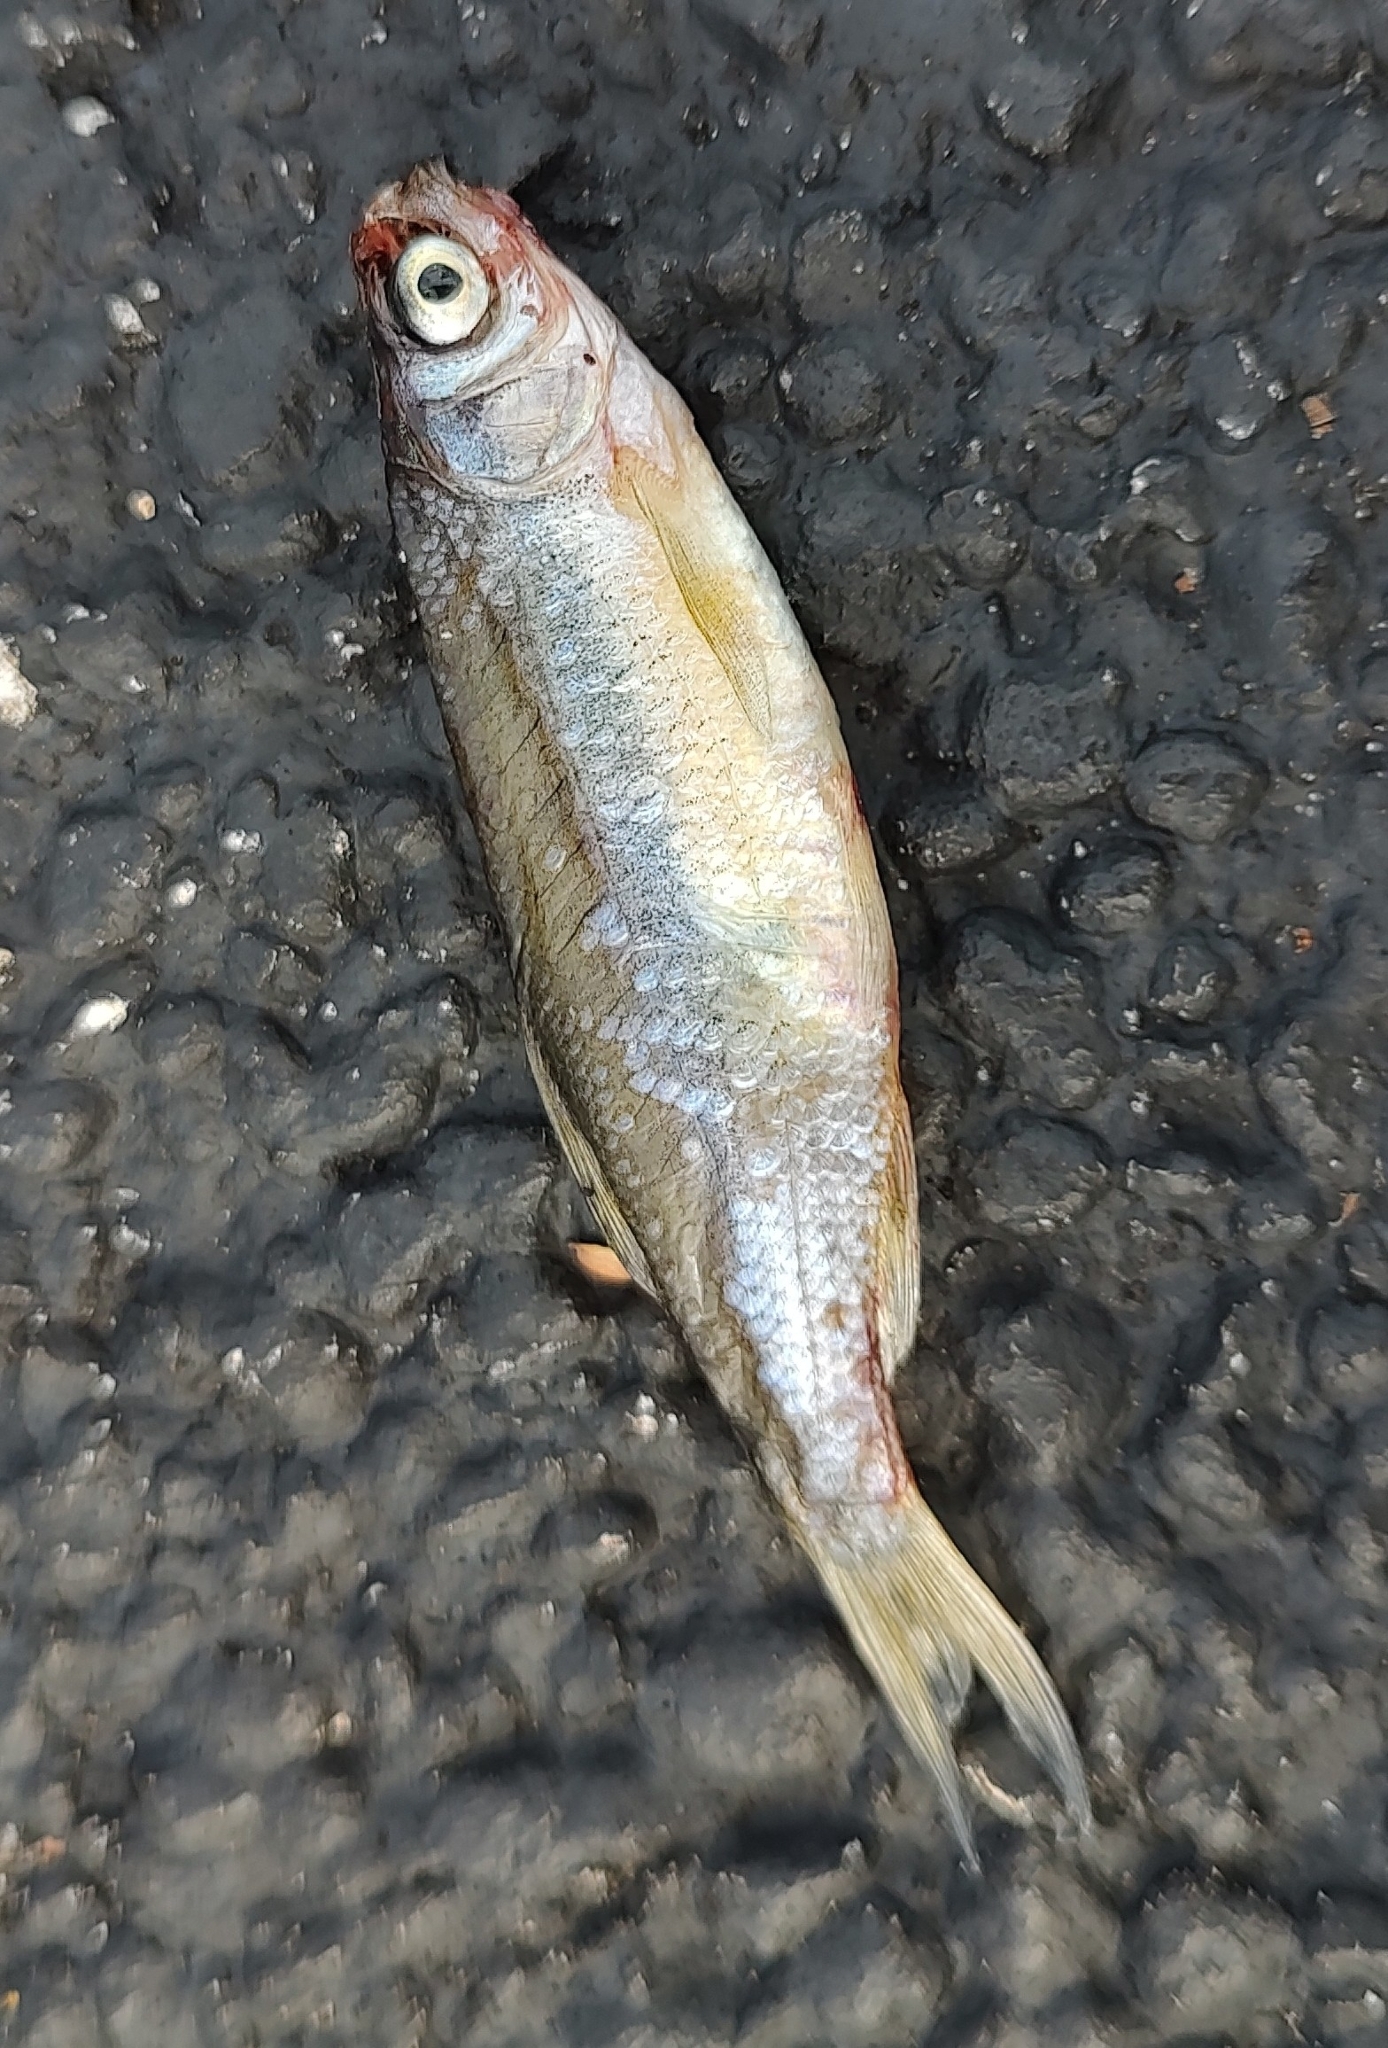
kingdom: Animalia
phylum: Chordata
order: Cypriniformes
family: Cyprinidae
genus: Notemigonus
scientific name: Notemigonus crysoleucas
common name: Golden shiner
